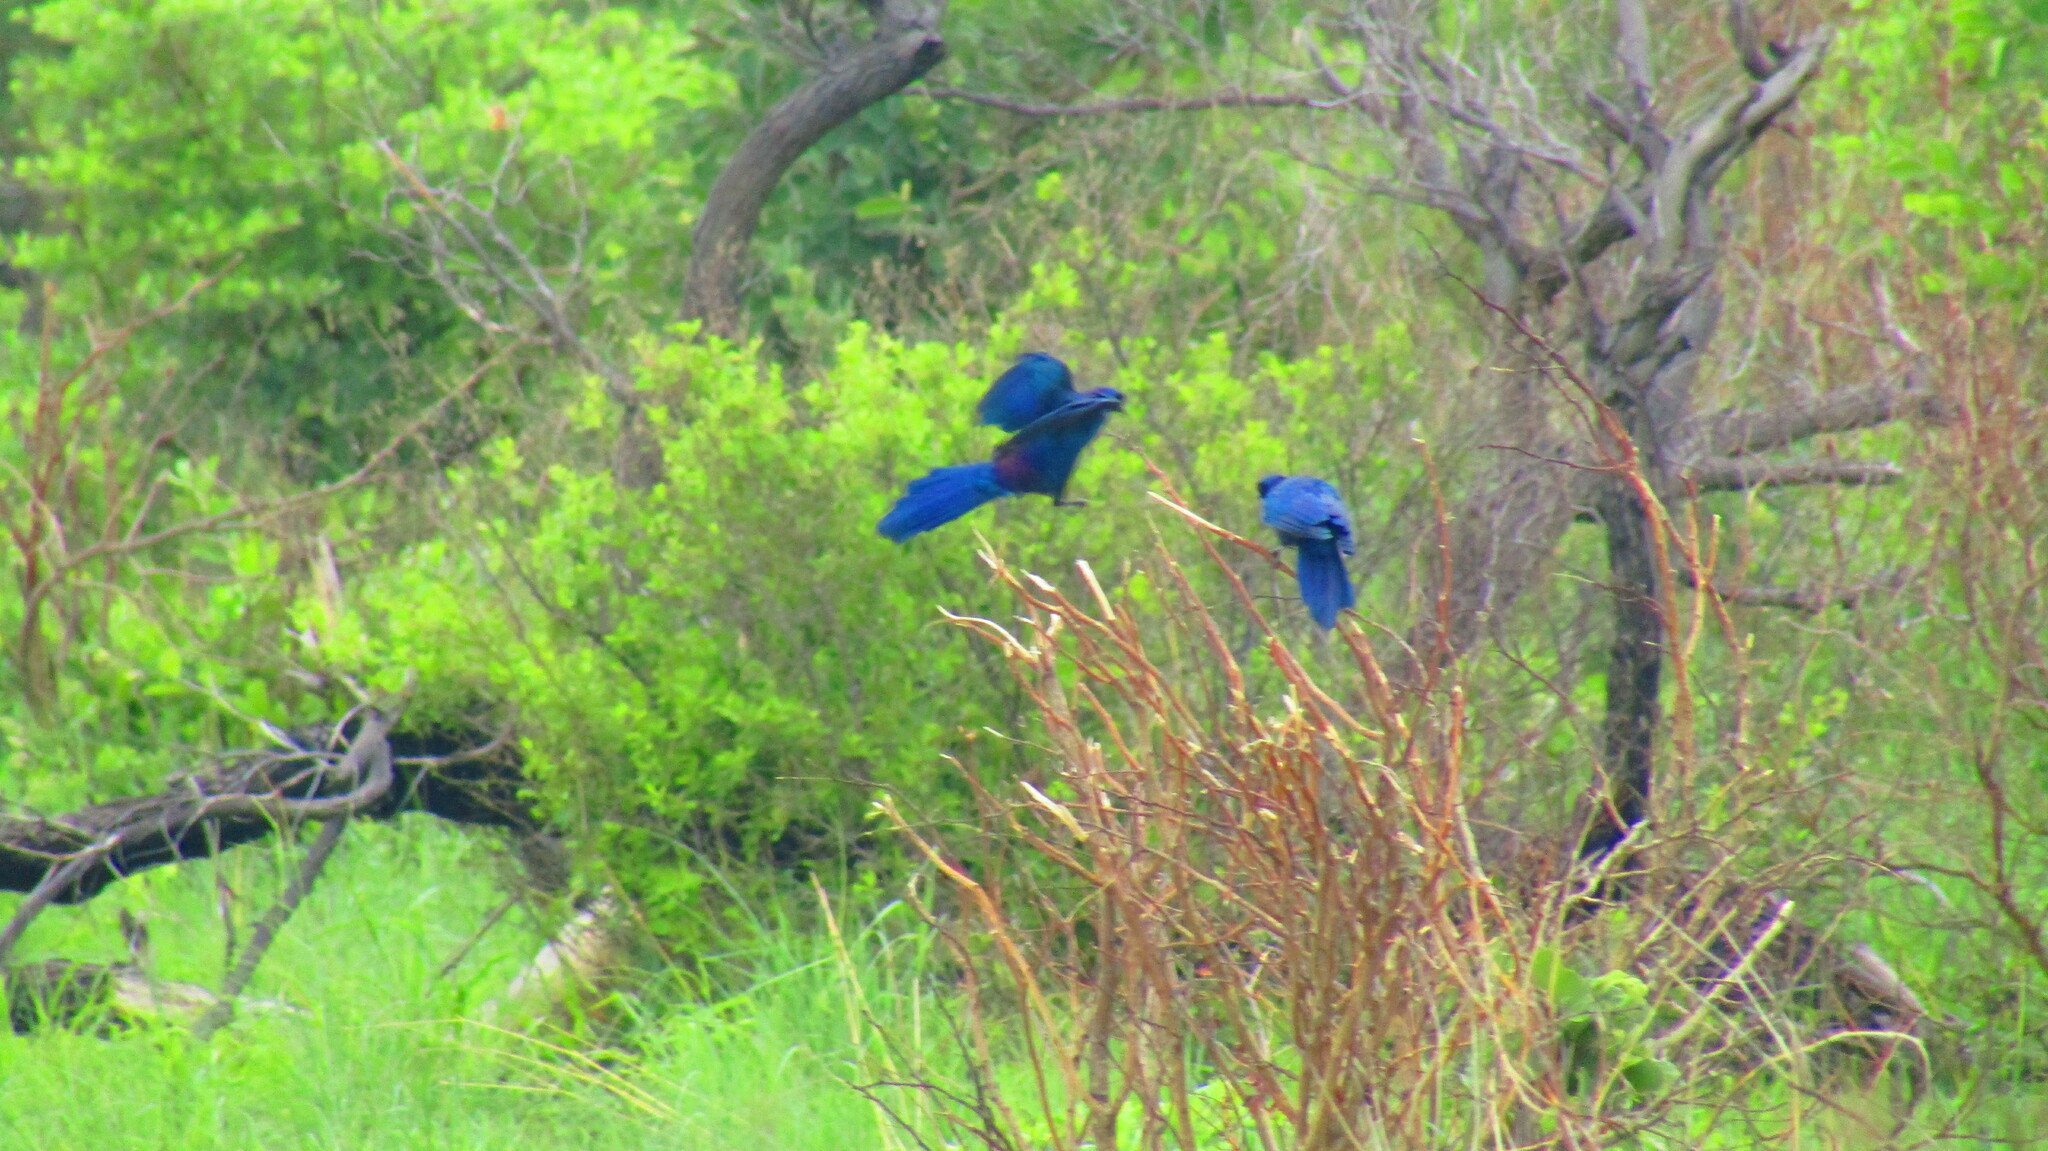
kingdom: Animalia
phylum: Chordata
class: Aves
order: Passeriformes
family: Sturnidae
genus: Lamprotornis
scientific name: Lamprotornis australis
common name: Burchell's starling
